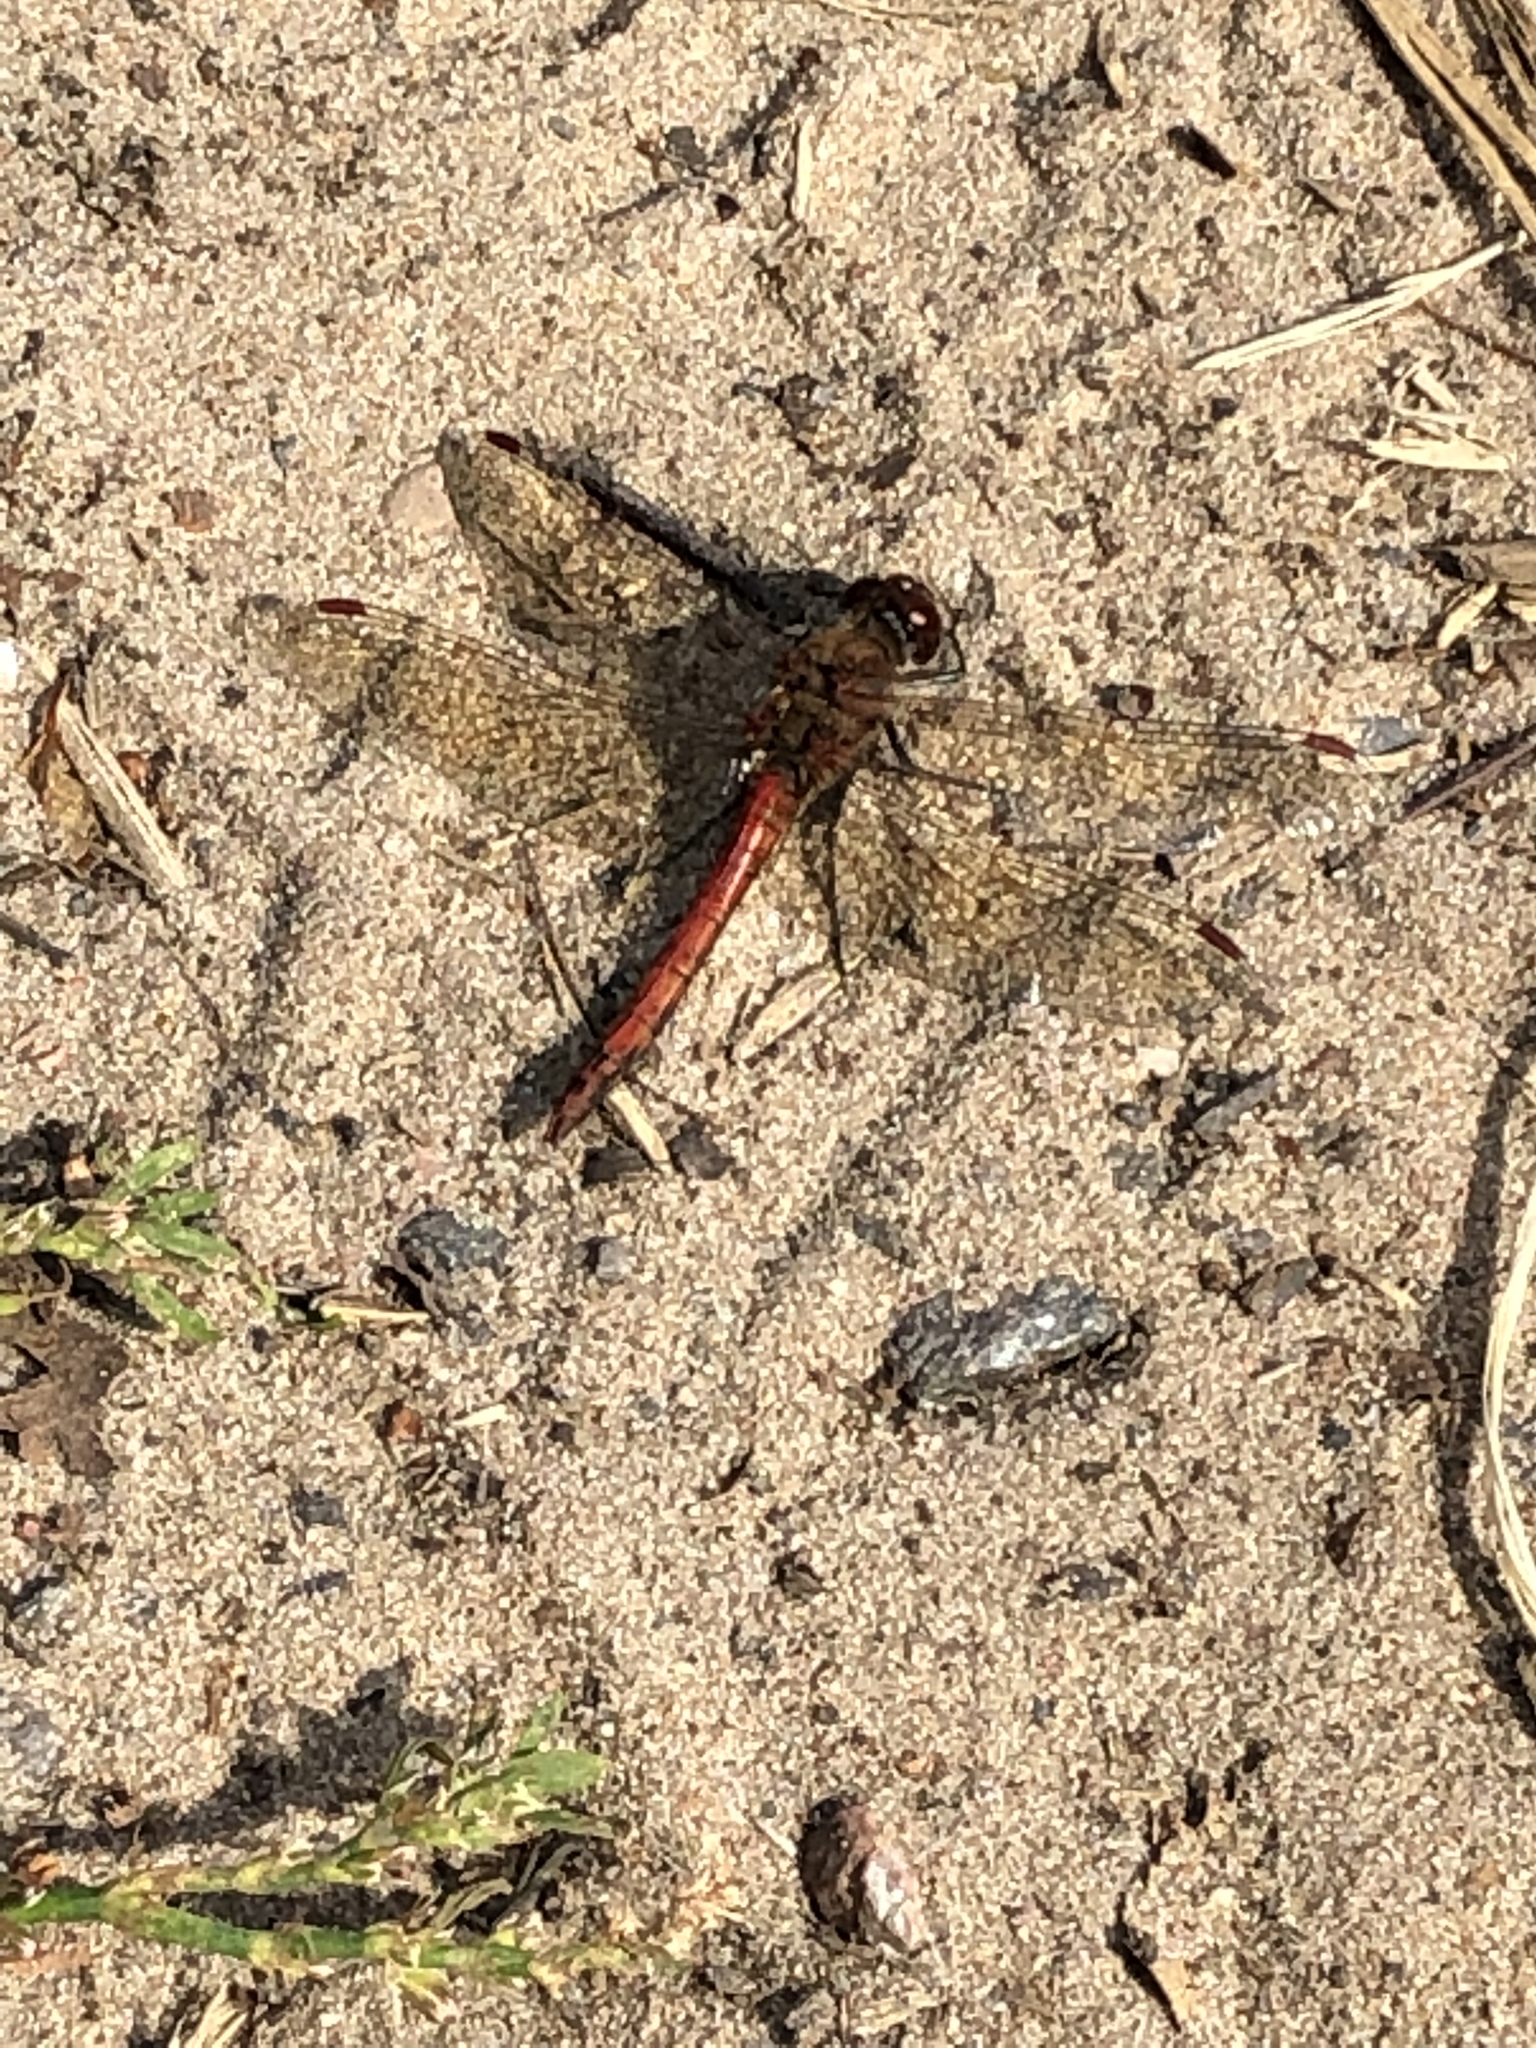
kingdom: Animalia
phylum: Arthropoda
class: Insecta
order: Odonata
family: Libellulidae
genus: Sympetrum
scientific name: Sympetrum striolatum
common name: Common darter
